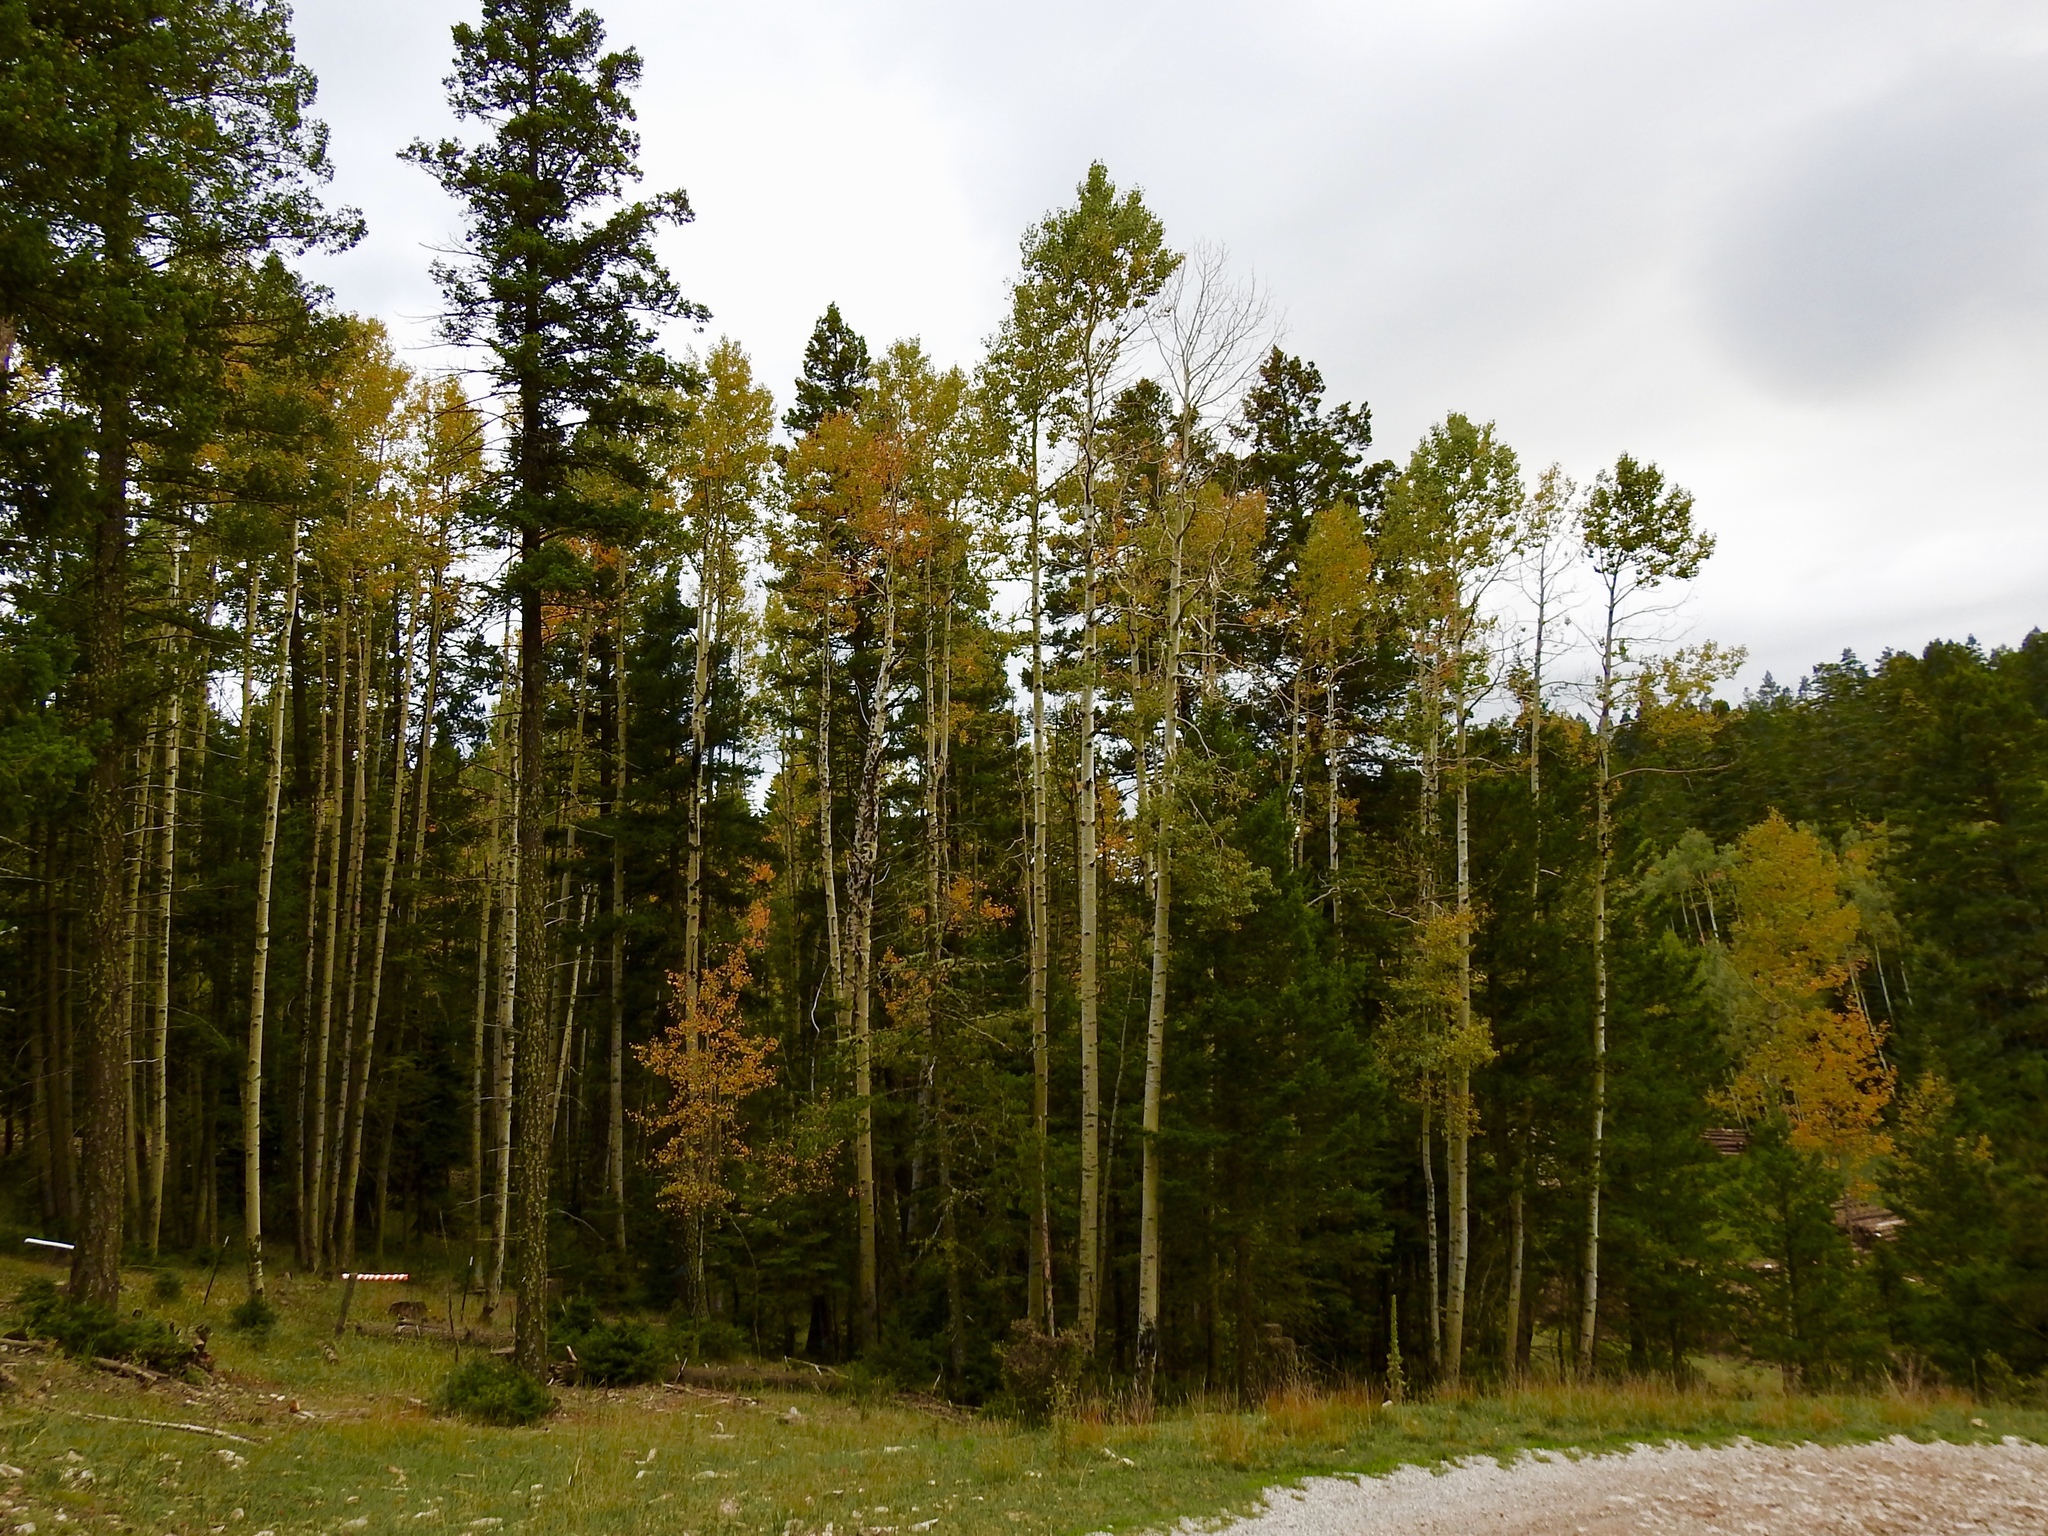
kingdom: Plantae
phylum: Tracheophyta
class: Magnoliopsida
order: Malpighiales
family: Salicaceae
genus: Populus
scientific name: Populus tremuloides
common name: Quaking aspen
